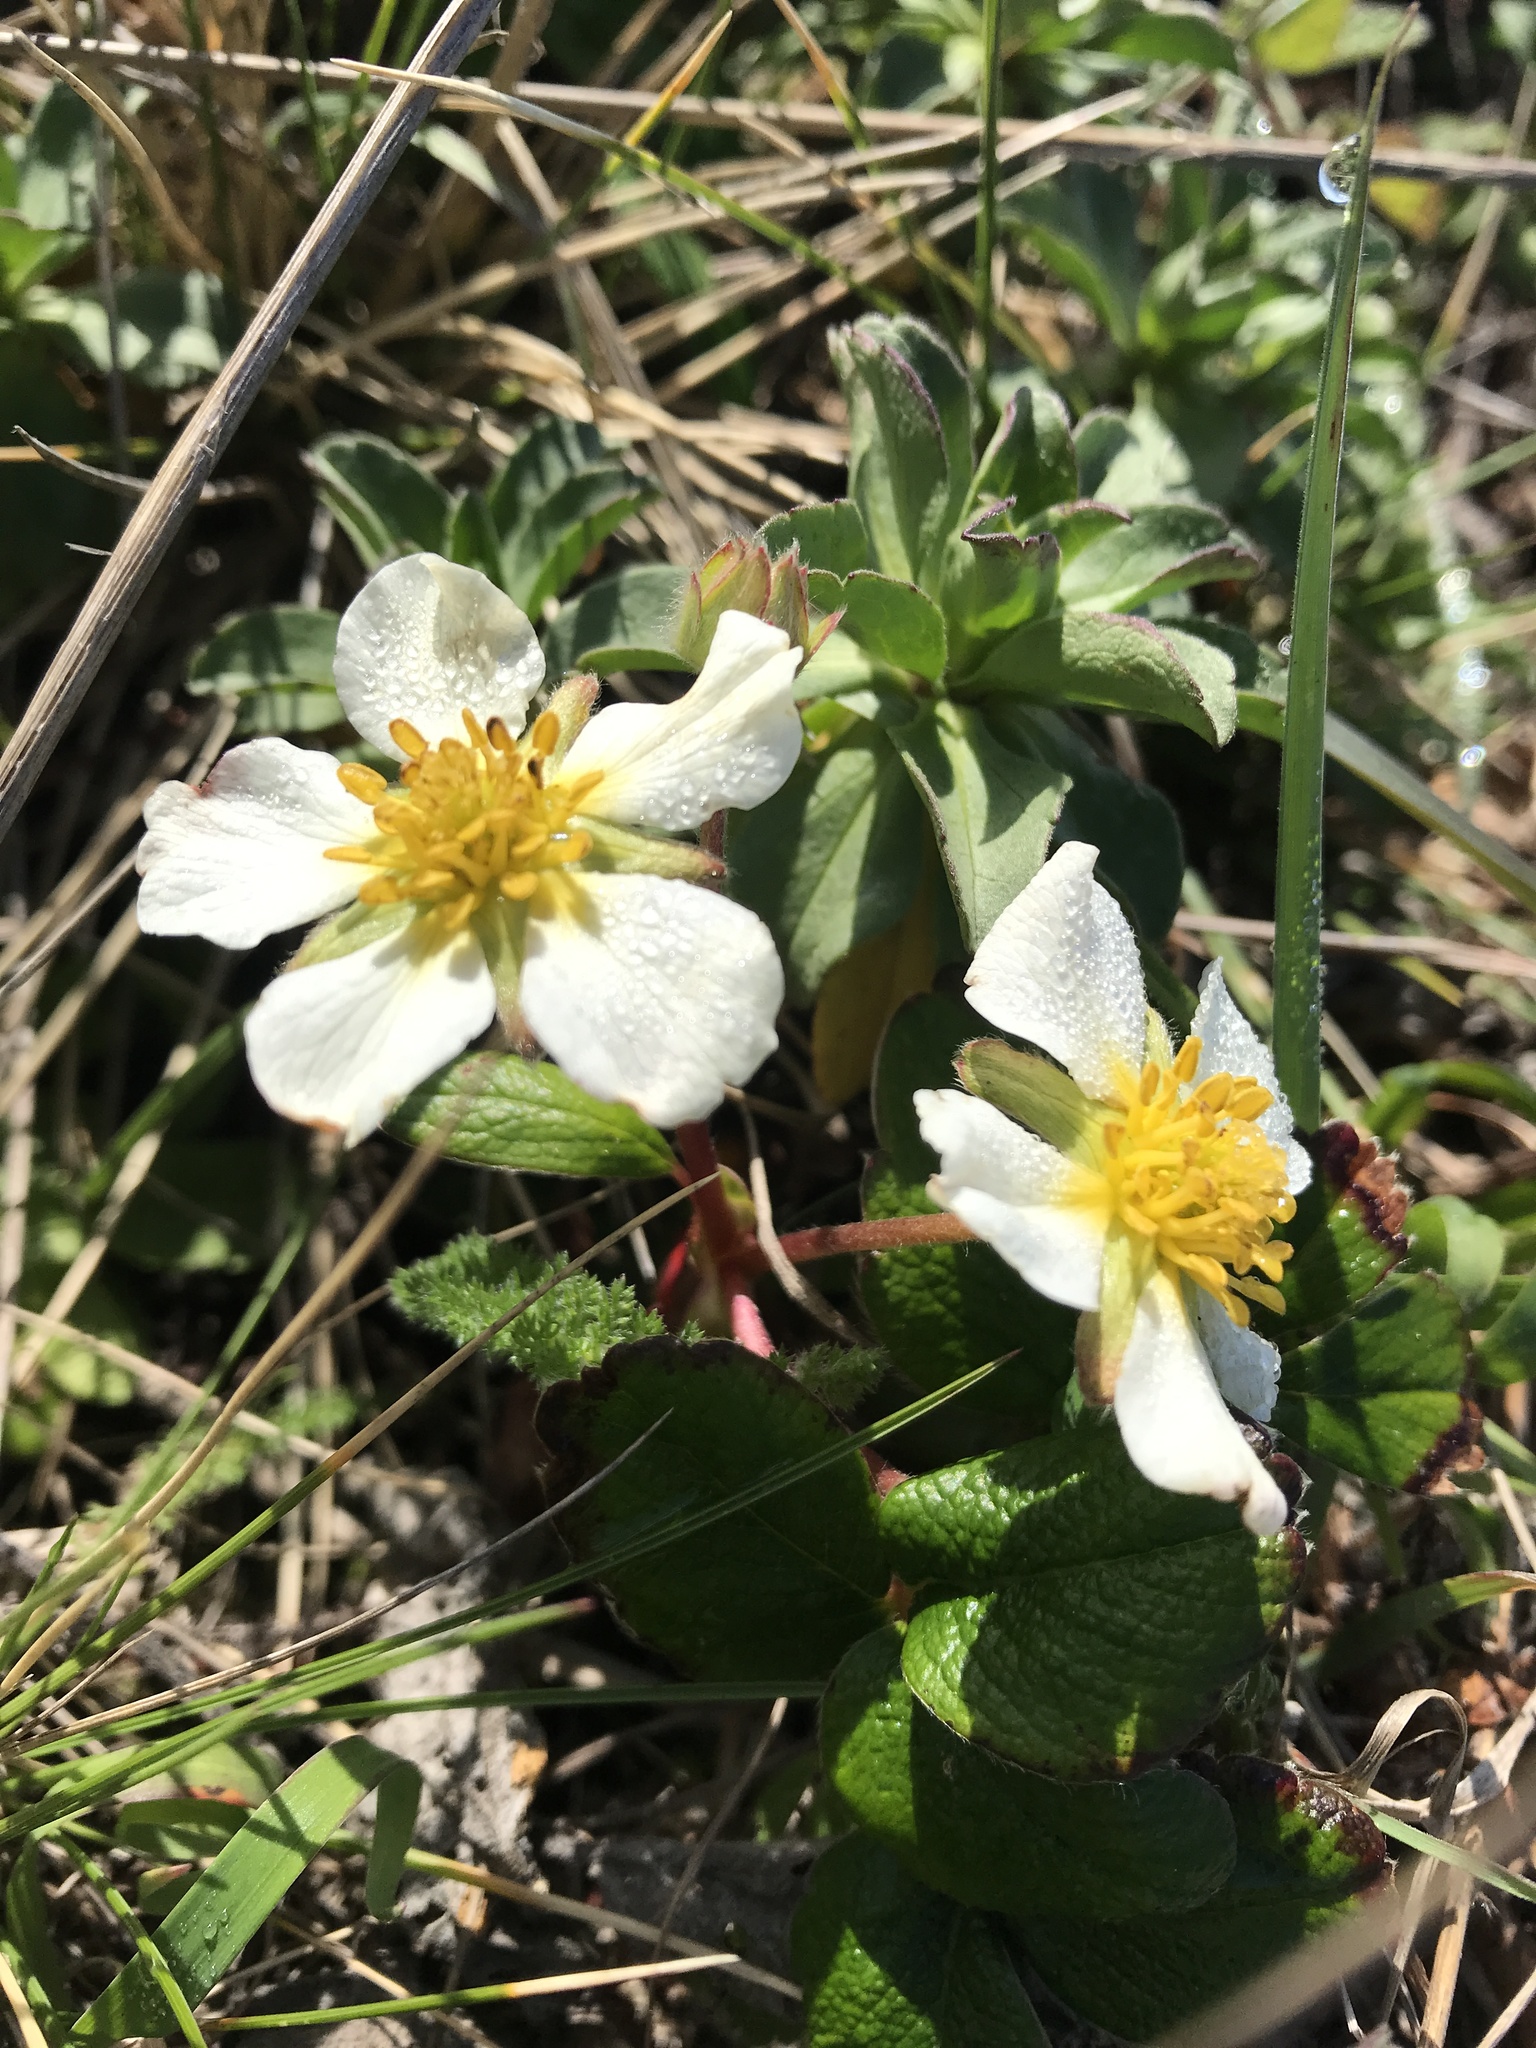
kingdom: Plantae
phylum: Tracheophyta
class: Magnoliopsida
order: Rosales
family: Rosaceae
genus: Fragaria
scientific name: Fragaria chiloensis
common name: Beach strawberry
